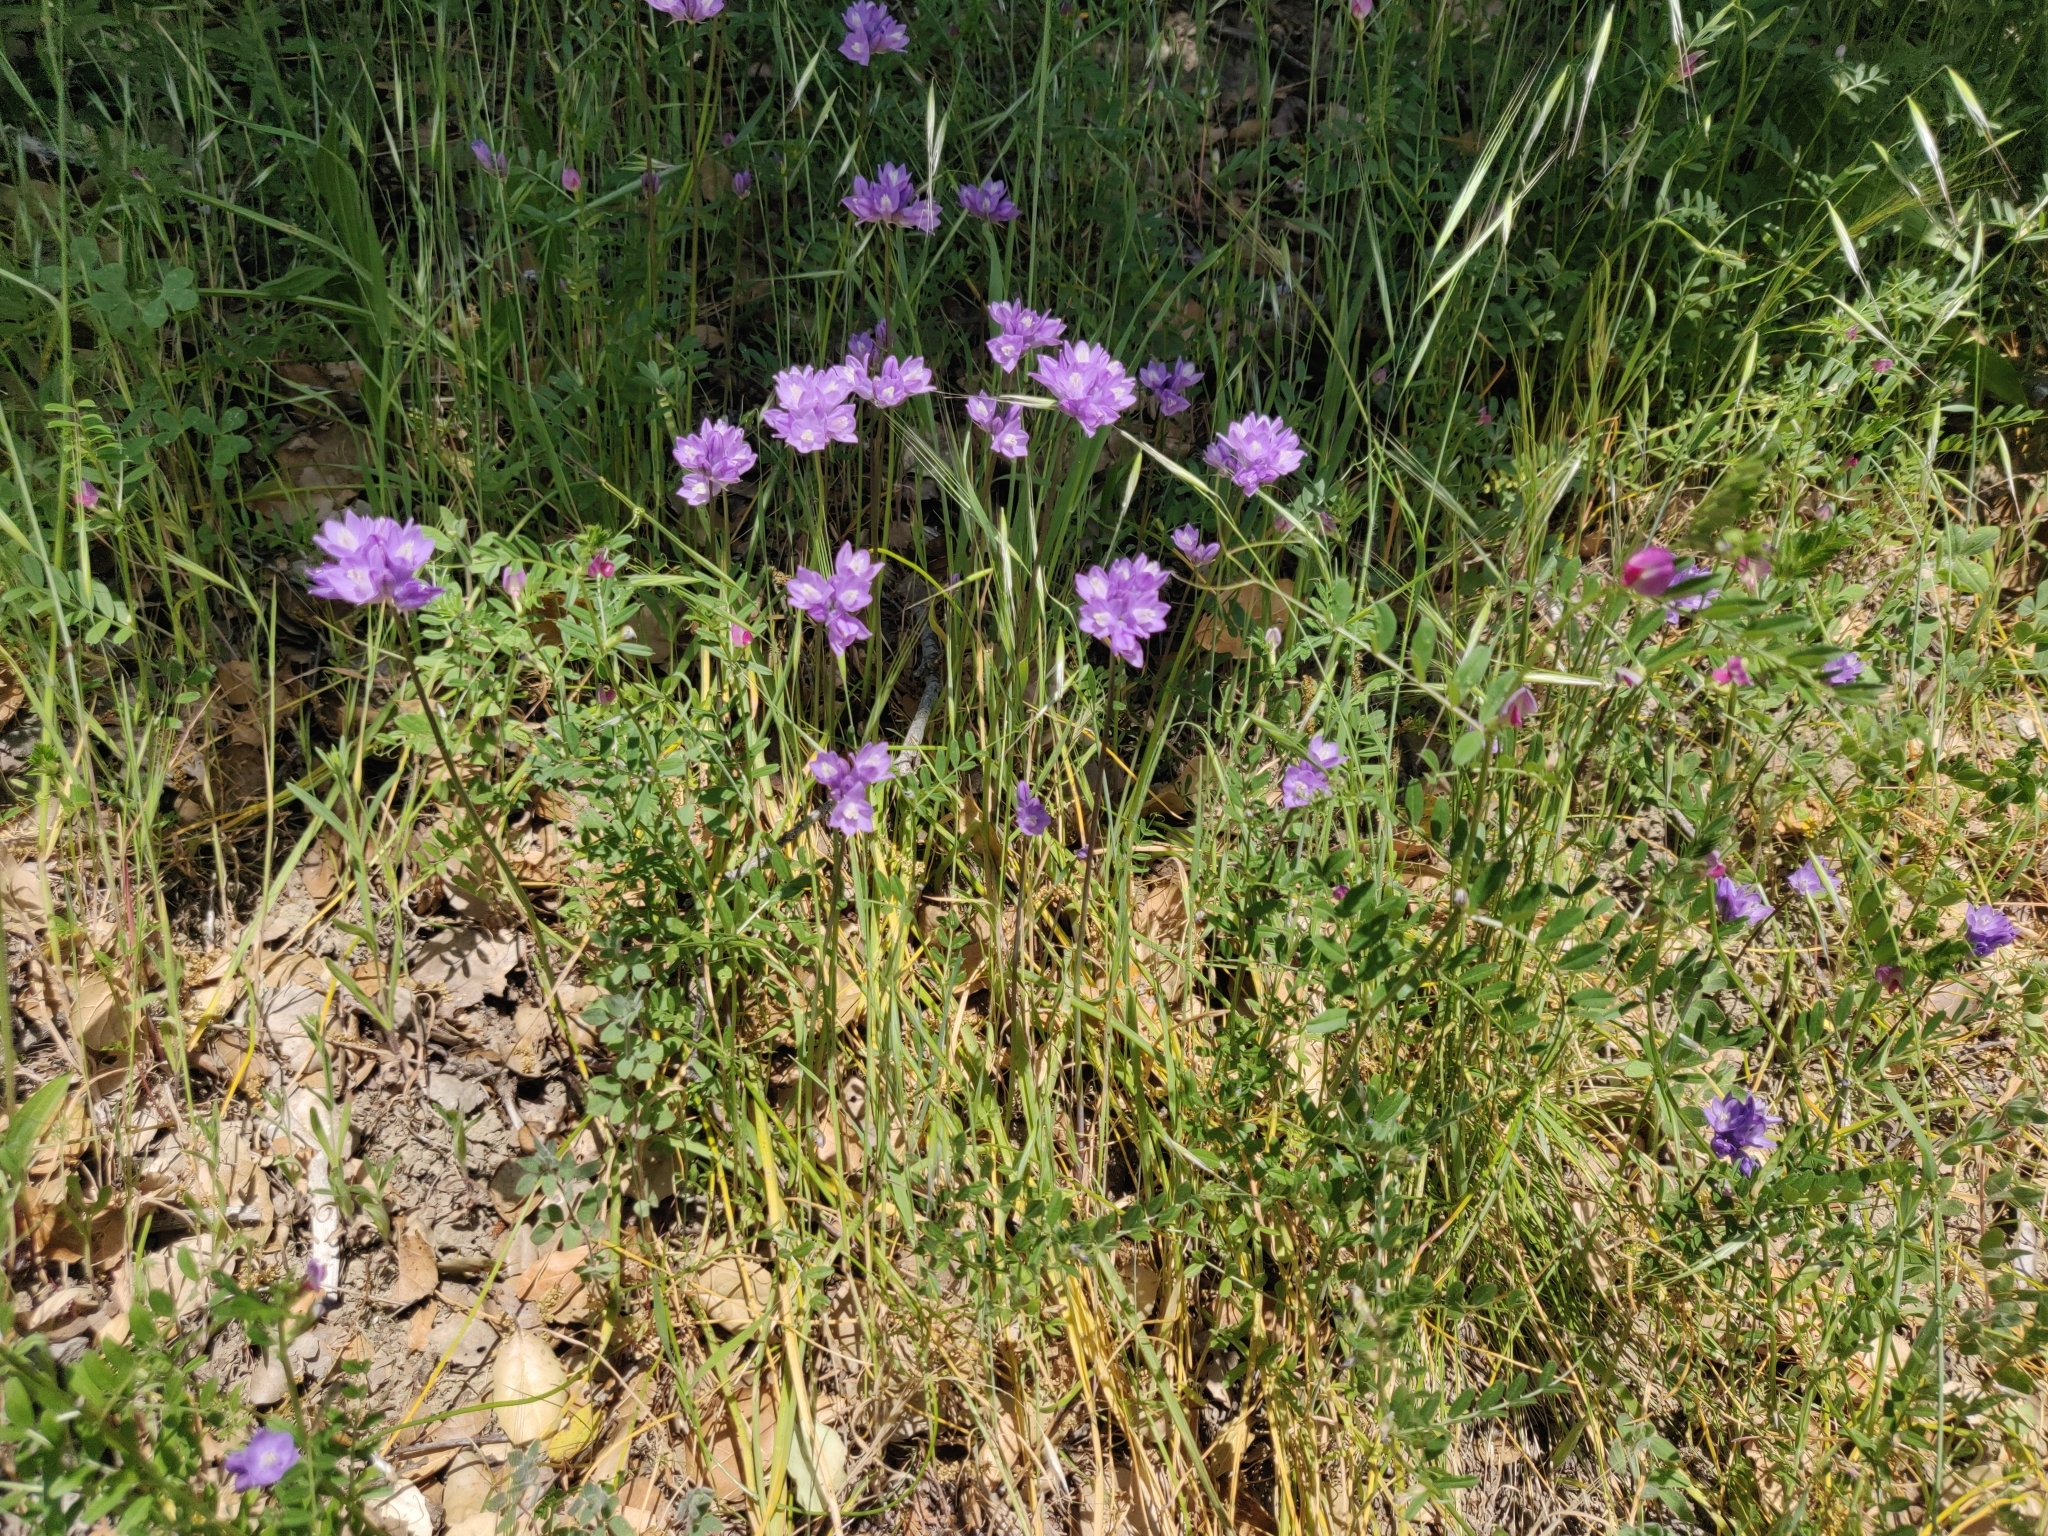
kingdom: Plantae
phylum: Tracheophyta
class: Liliopsida
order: Asparagales
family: Asparagaceae
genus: Dipterostemon
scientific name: Dipterostemon capitatus
